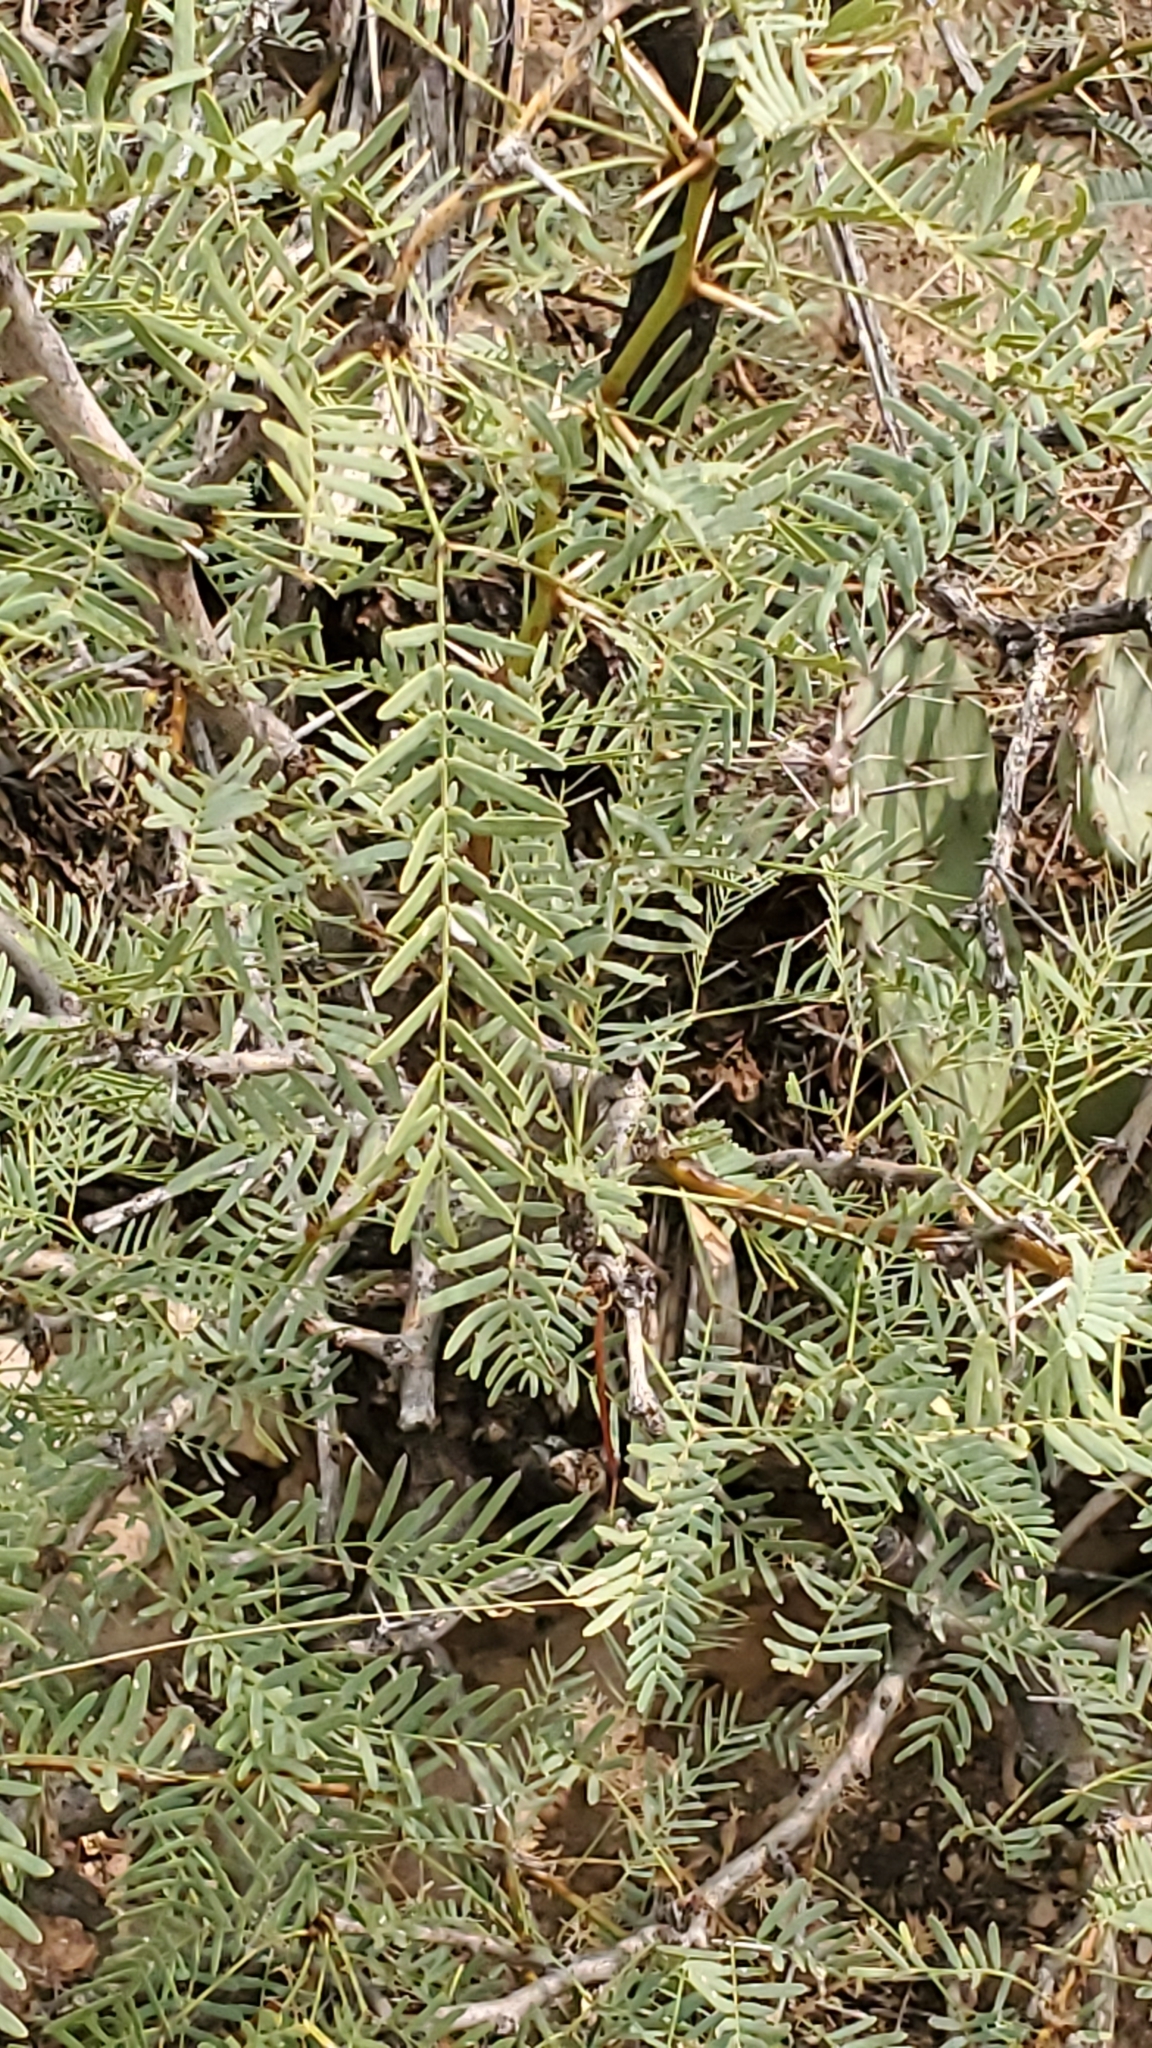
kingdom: Plantae
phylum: Tracheophyta
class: Magnoliopsida
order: Fabales
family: Fabaceae
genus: Prosopis
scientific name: Prosopis glandulosa
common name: Honey mesquite
